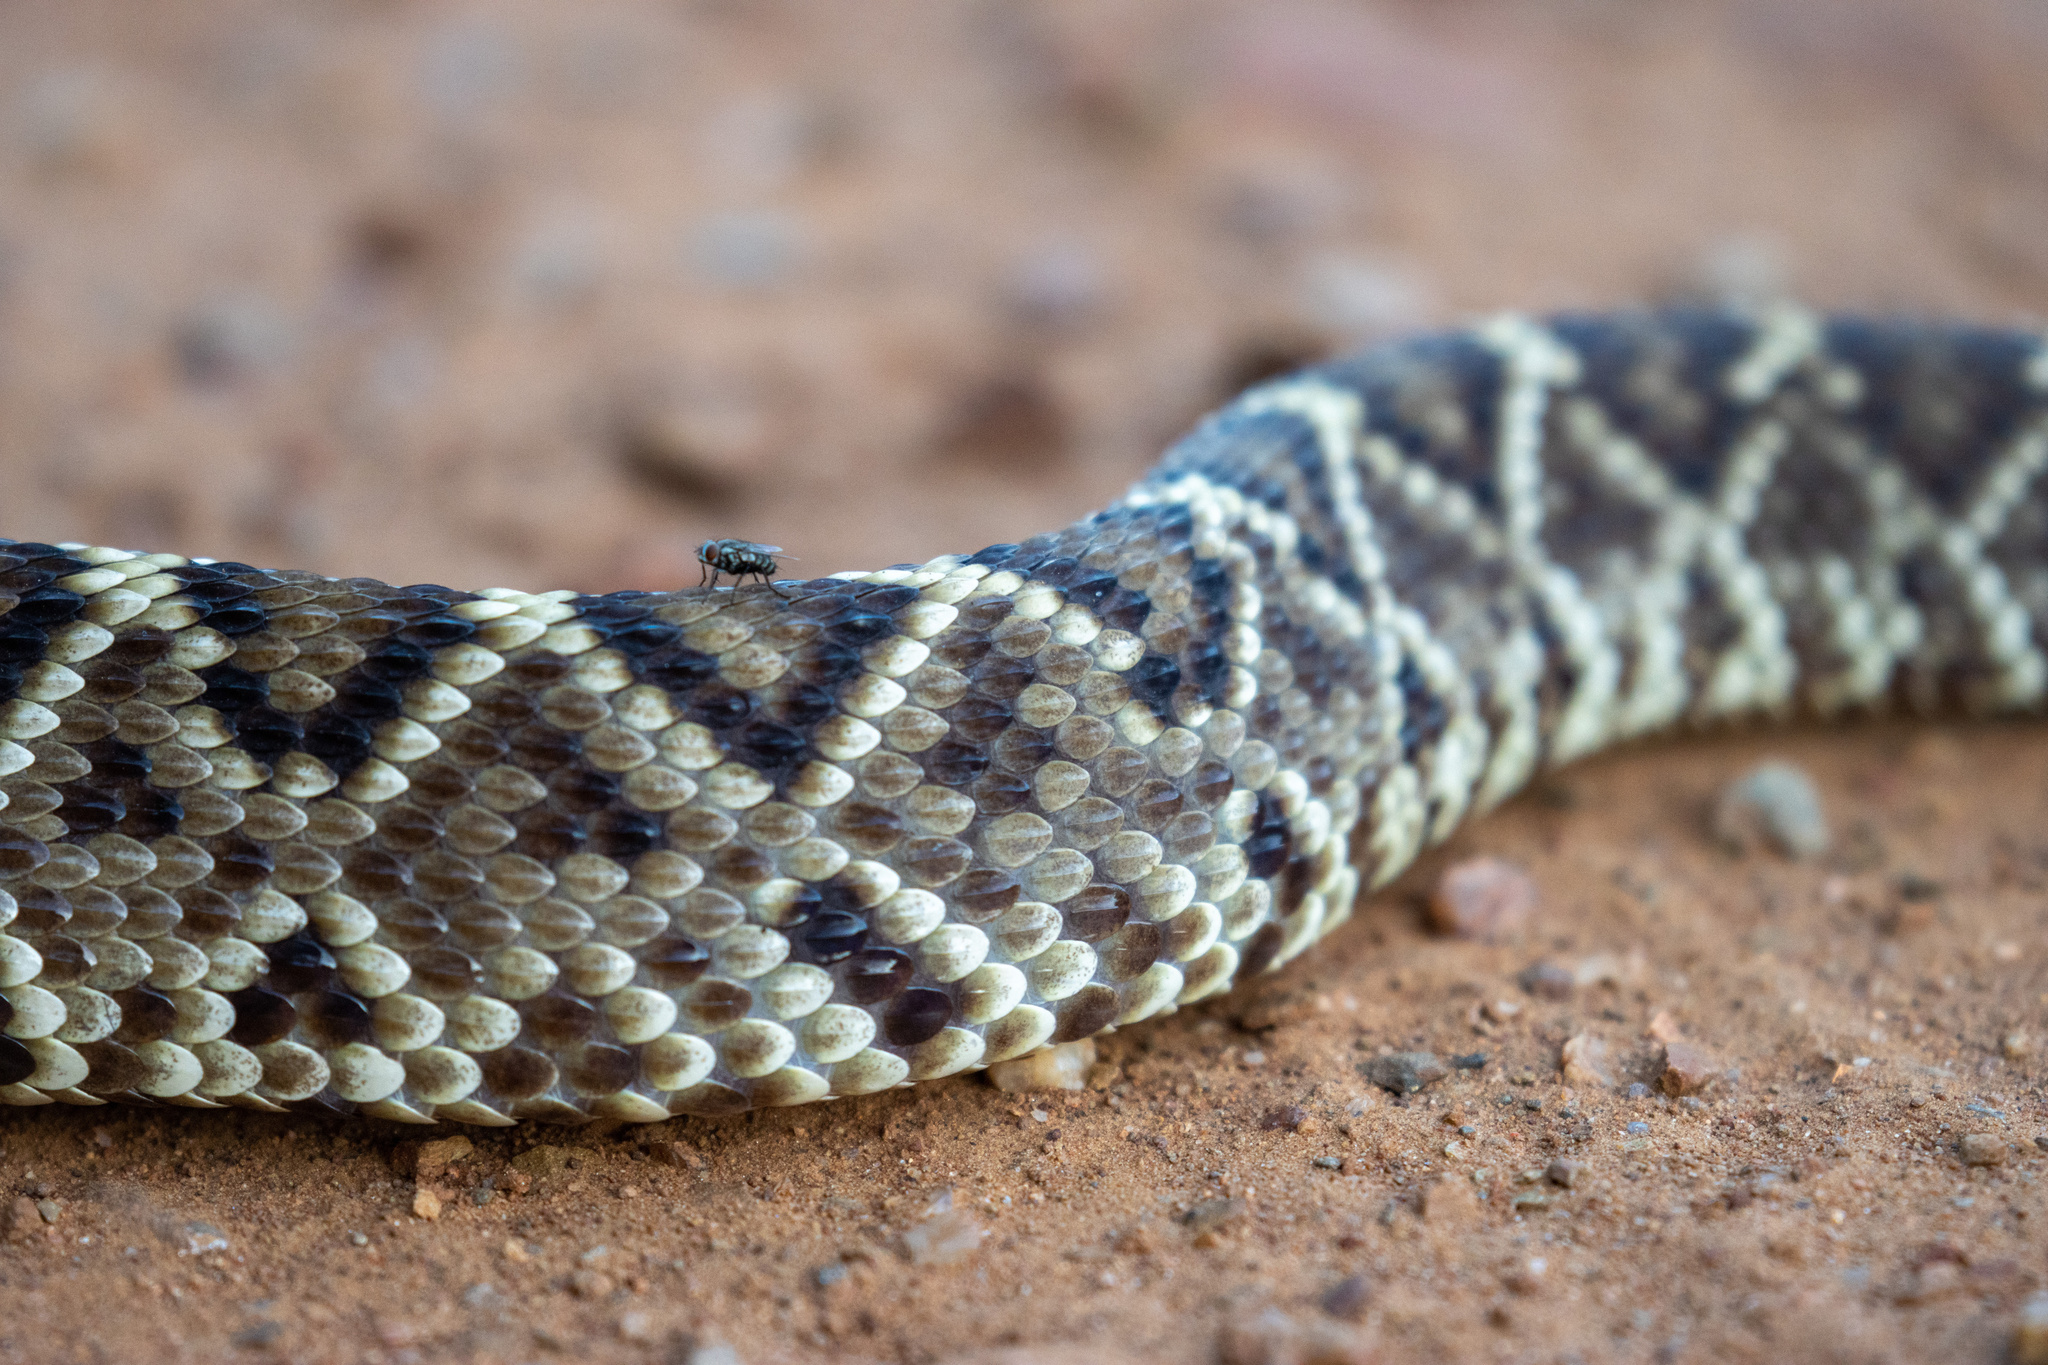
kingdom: Animalia
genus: Crotalus
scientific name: Crotalus durissus
